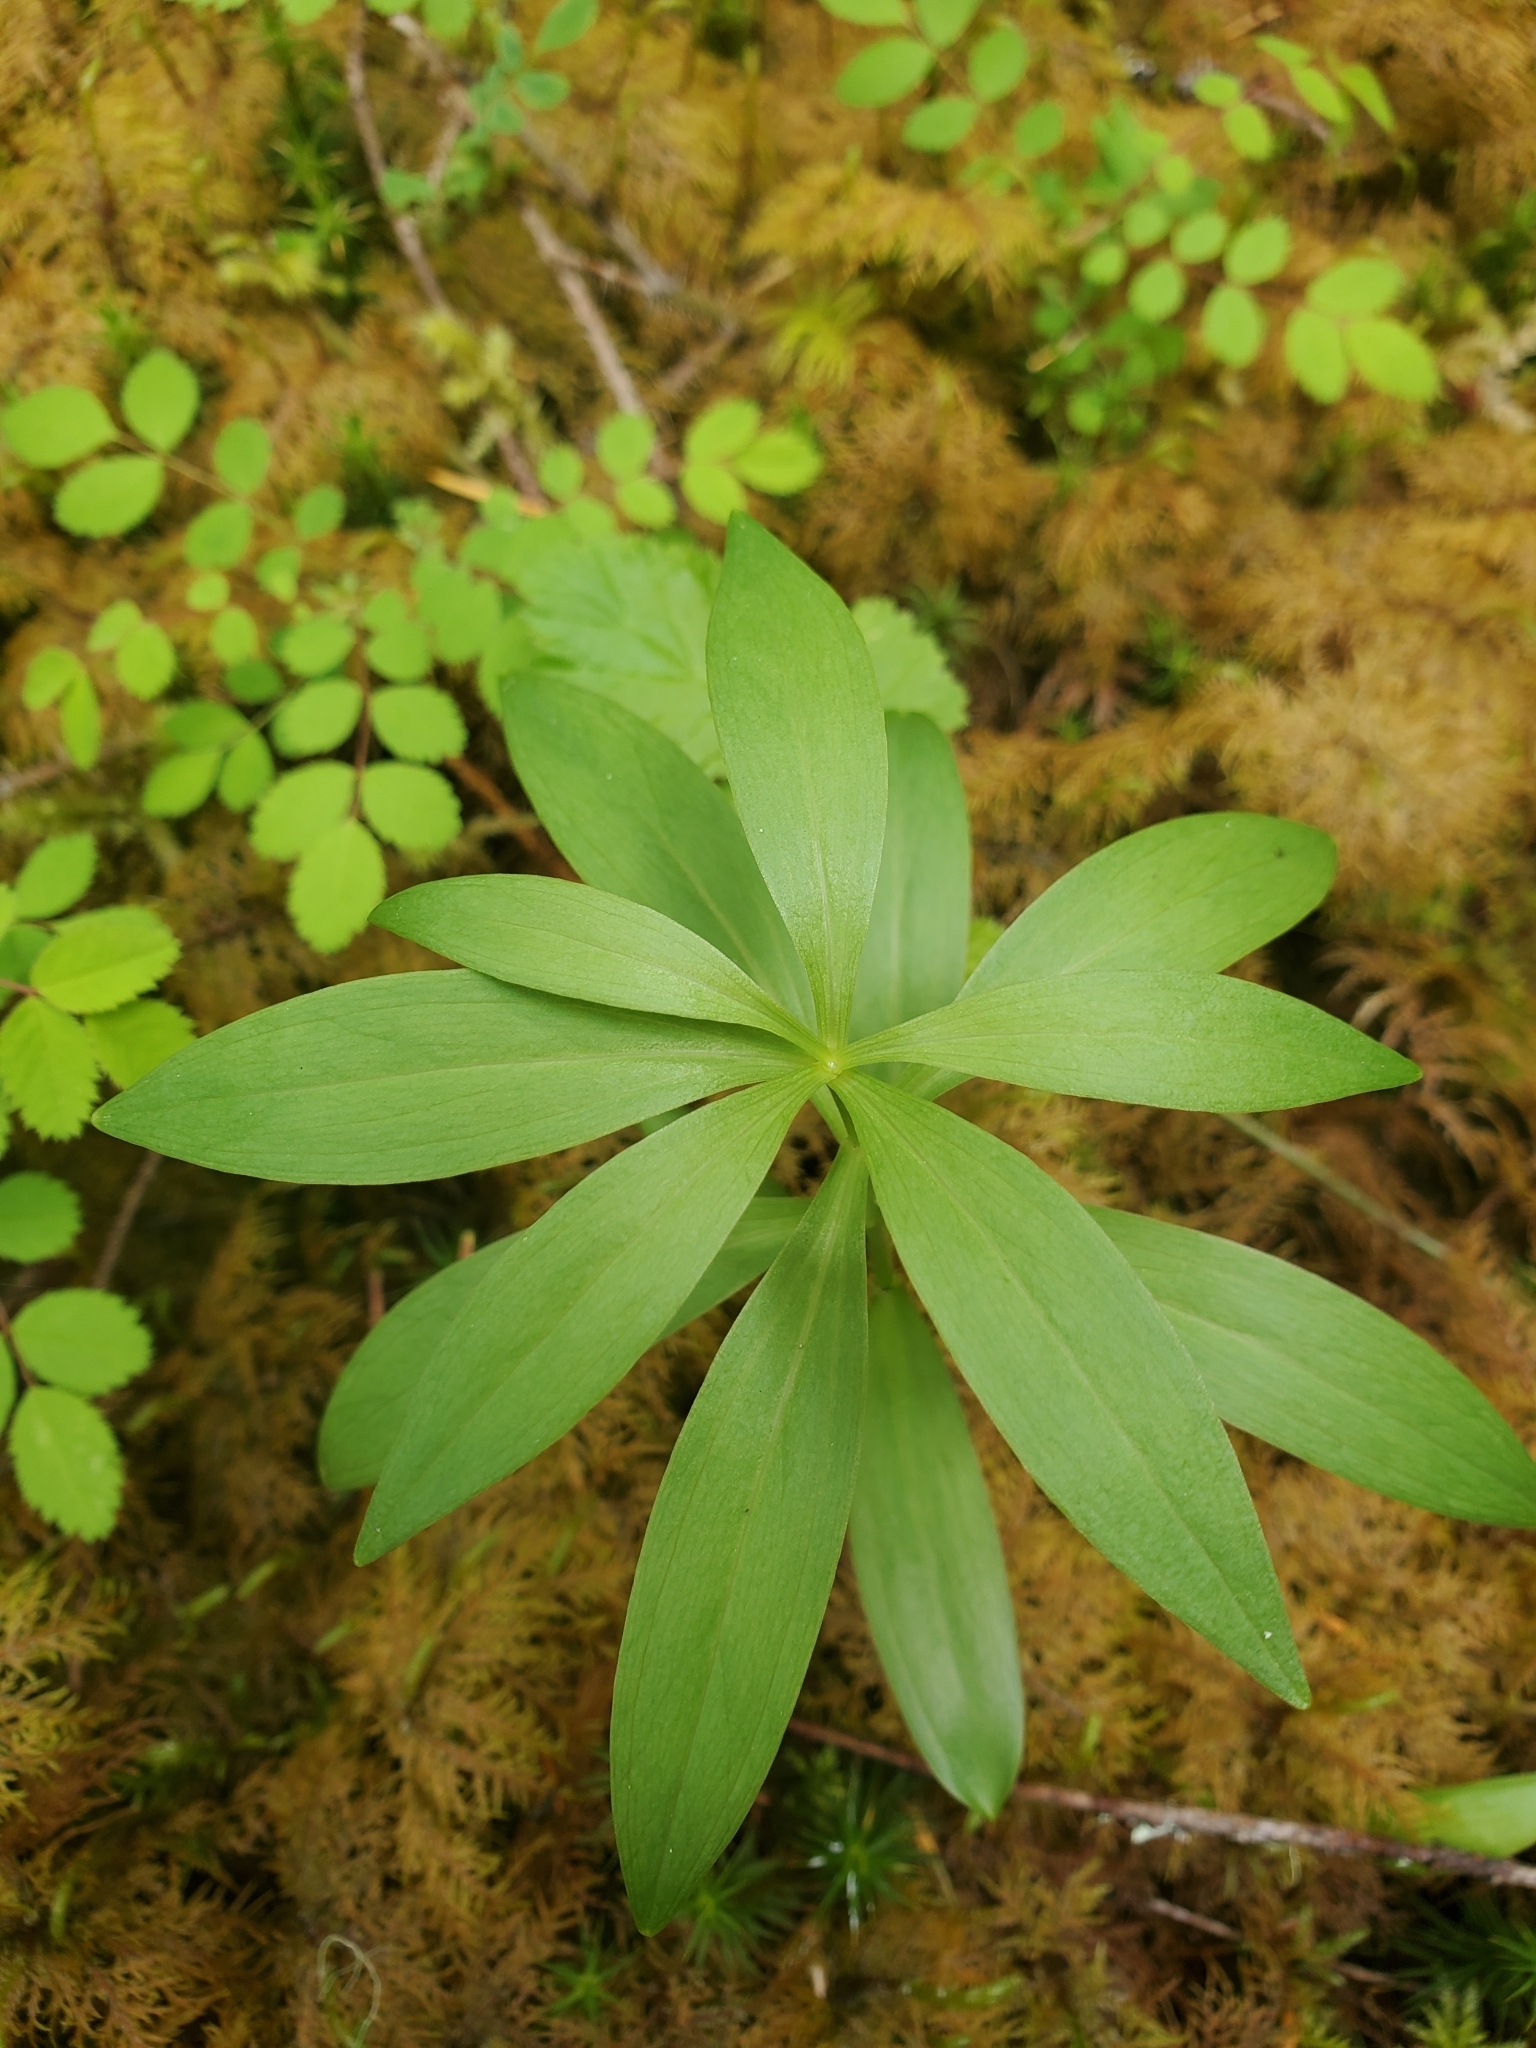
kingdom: Plantae
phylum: Tracheophyta
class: Liliopsida
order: Liliales
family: Liliaceae
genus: Lilium
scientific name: Lilium columbianum
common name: Columbia lily
